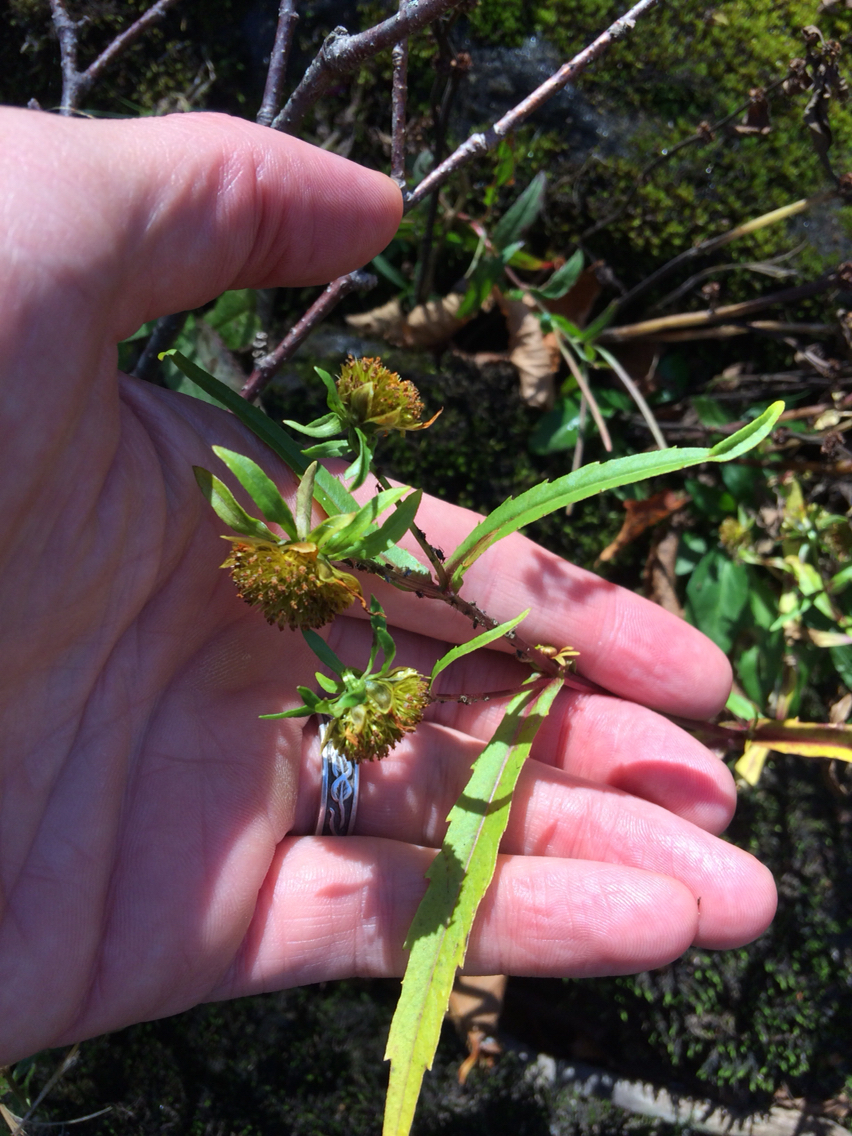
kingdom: Plantae
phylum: Tracheophyta
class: Magnoliopsida
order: Asterales
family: Asteraceae
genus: Bidens
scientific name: Bidens cernua
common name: Nodding bur-marigold
